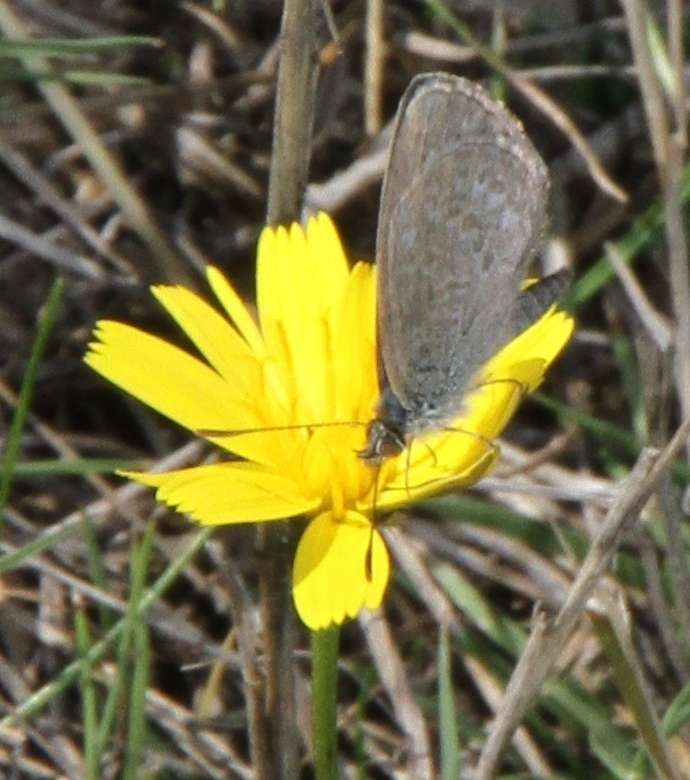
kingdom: Animalia
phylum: Arthropoda
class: Insecta
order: Lepidoptera
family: Lycaenidae
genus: Zizina
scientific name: Zizina labradus
